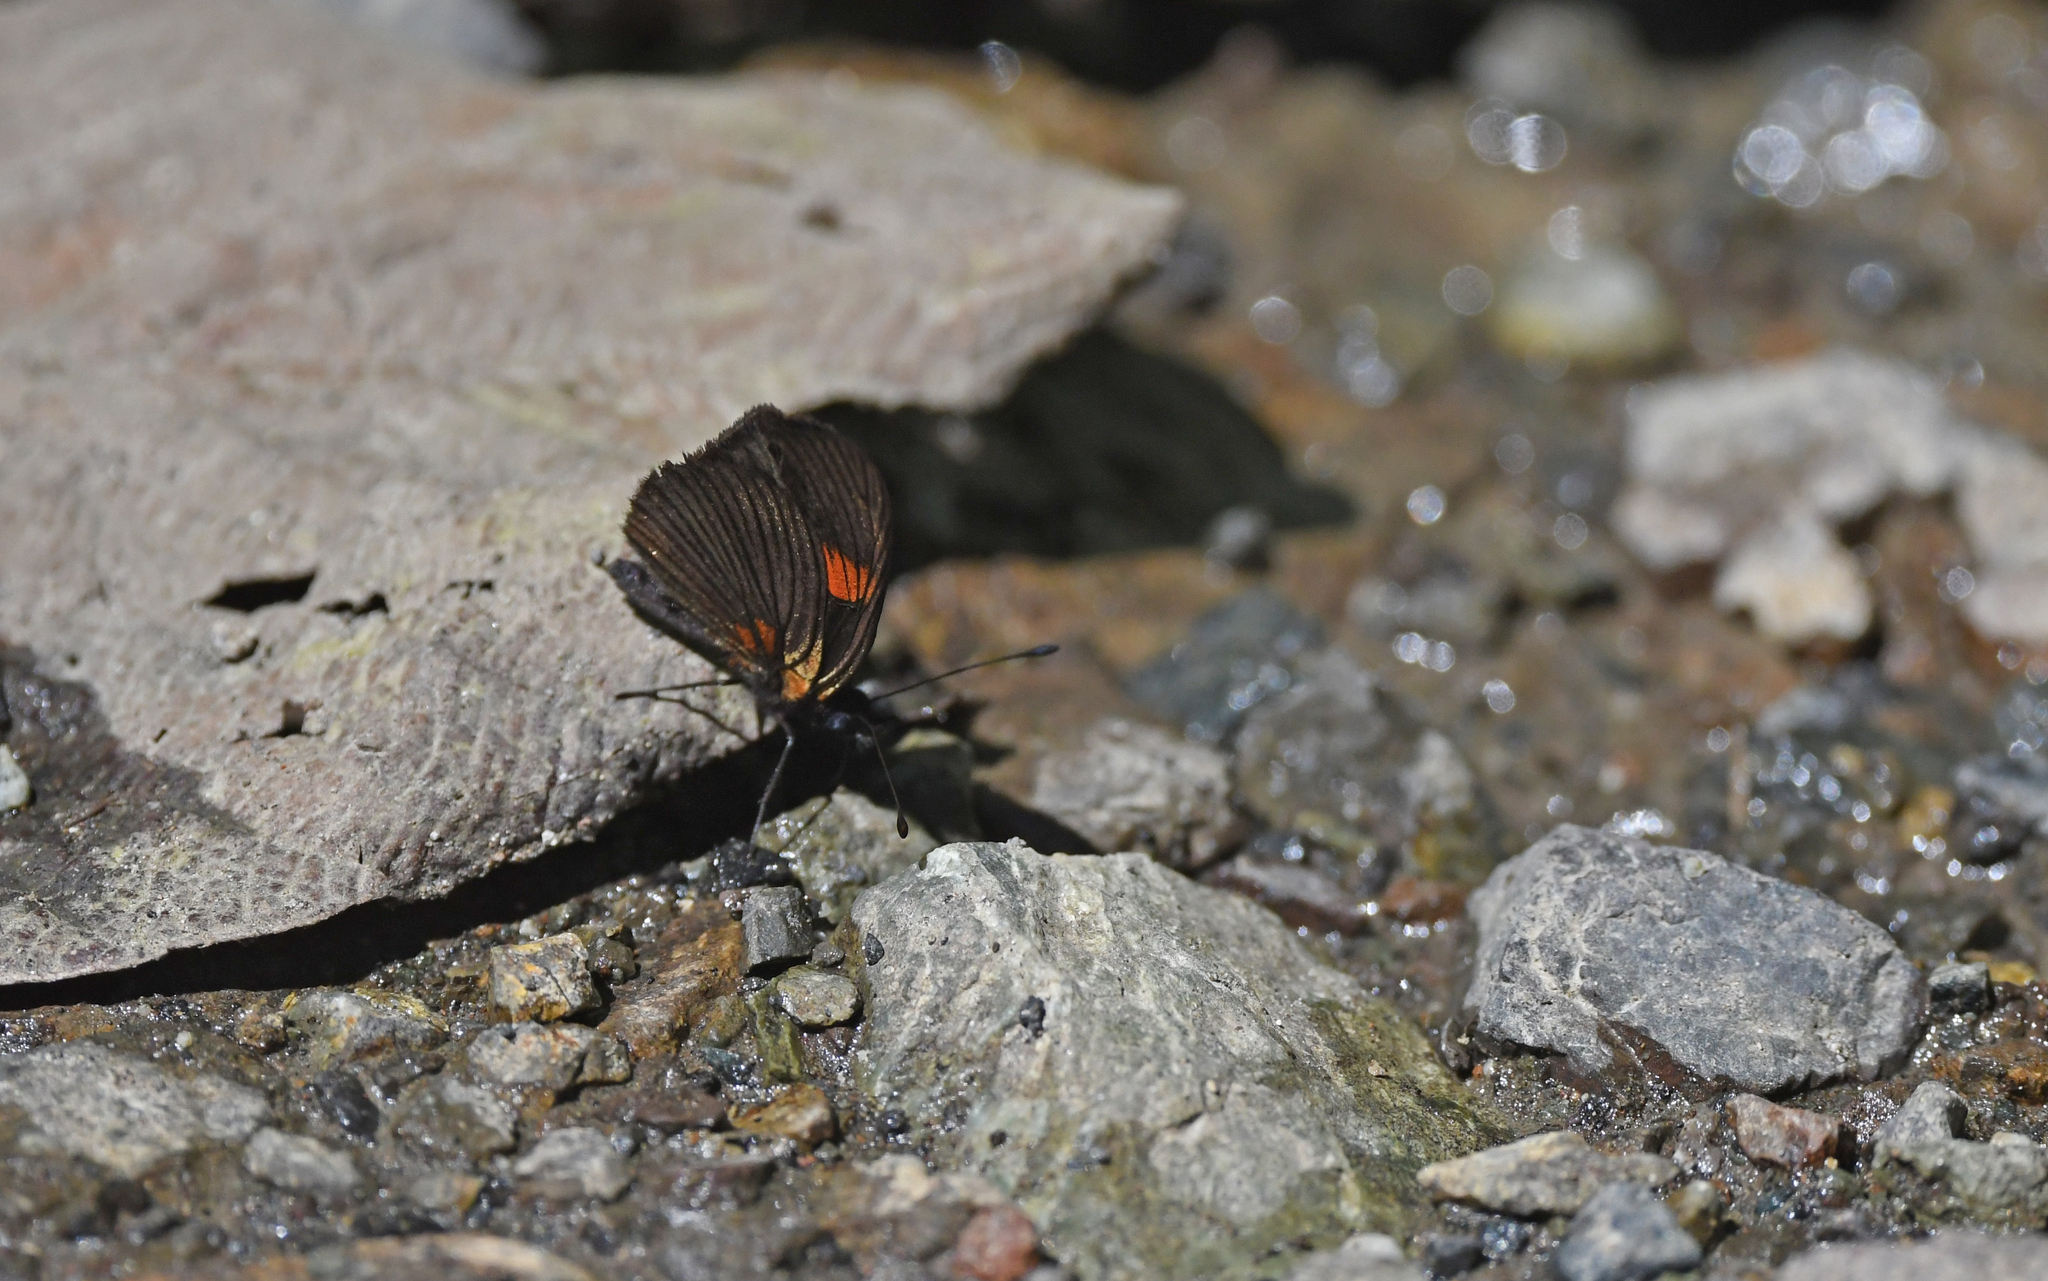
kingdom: Animalia
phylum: Arthropoda
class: Insecta
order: Lepidoptera
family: Nymphalidae
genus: Castilia
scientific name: Castilia castilla
